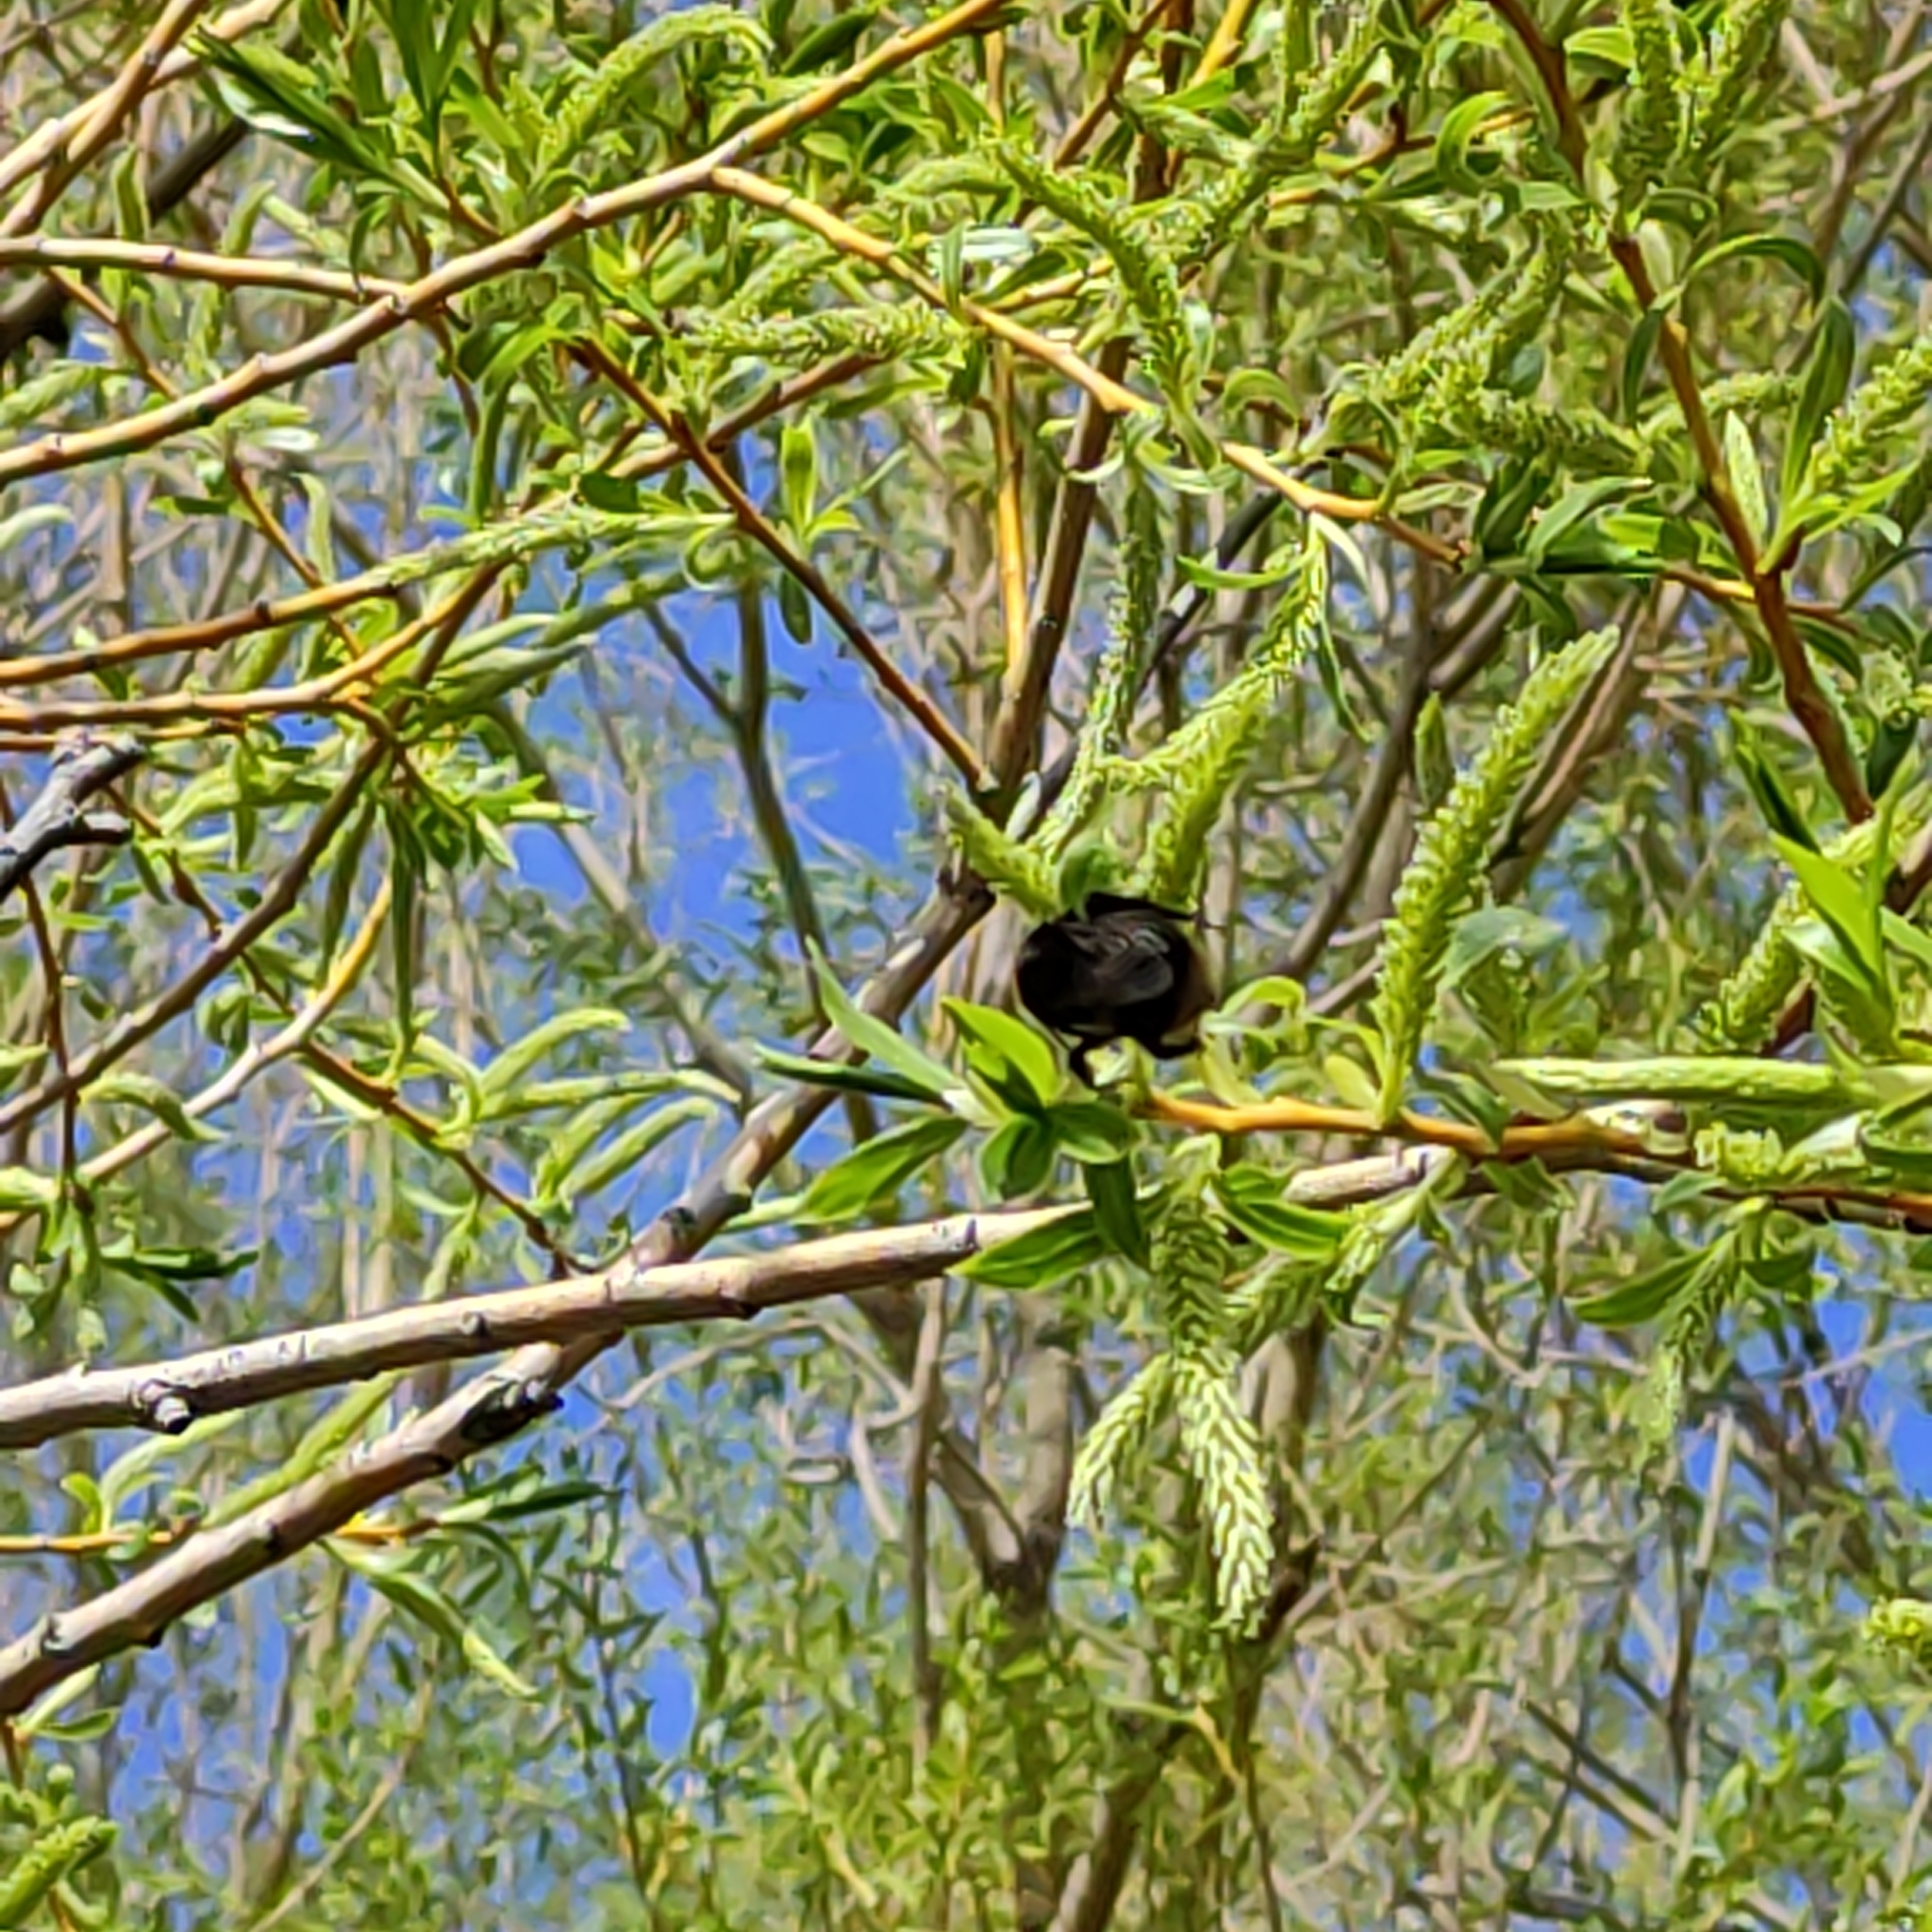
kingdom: Animalia
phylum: Arthropoda
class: Insecta
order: Hymenoptera
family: Apidae
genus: Bombus
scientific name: Bombus terrestris
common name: Buff-tailed bumblebee
